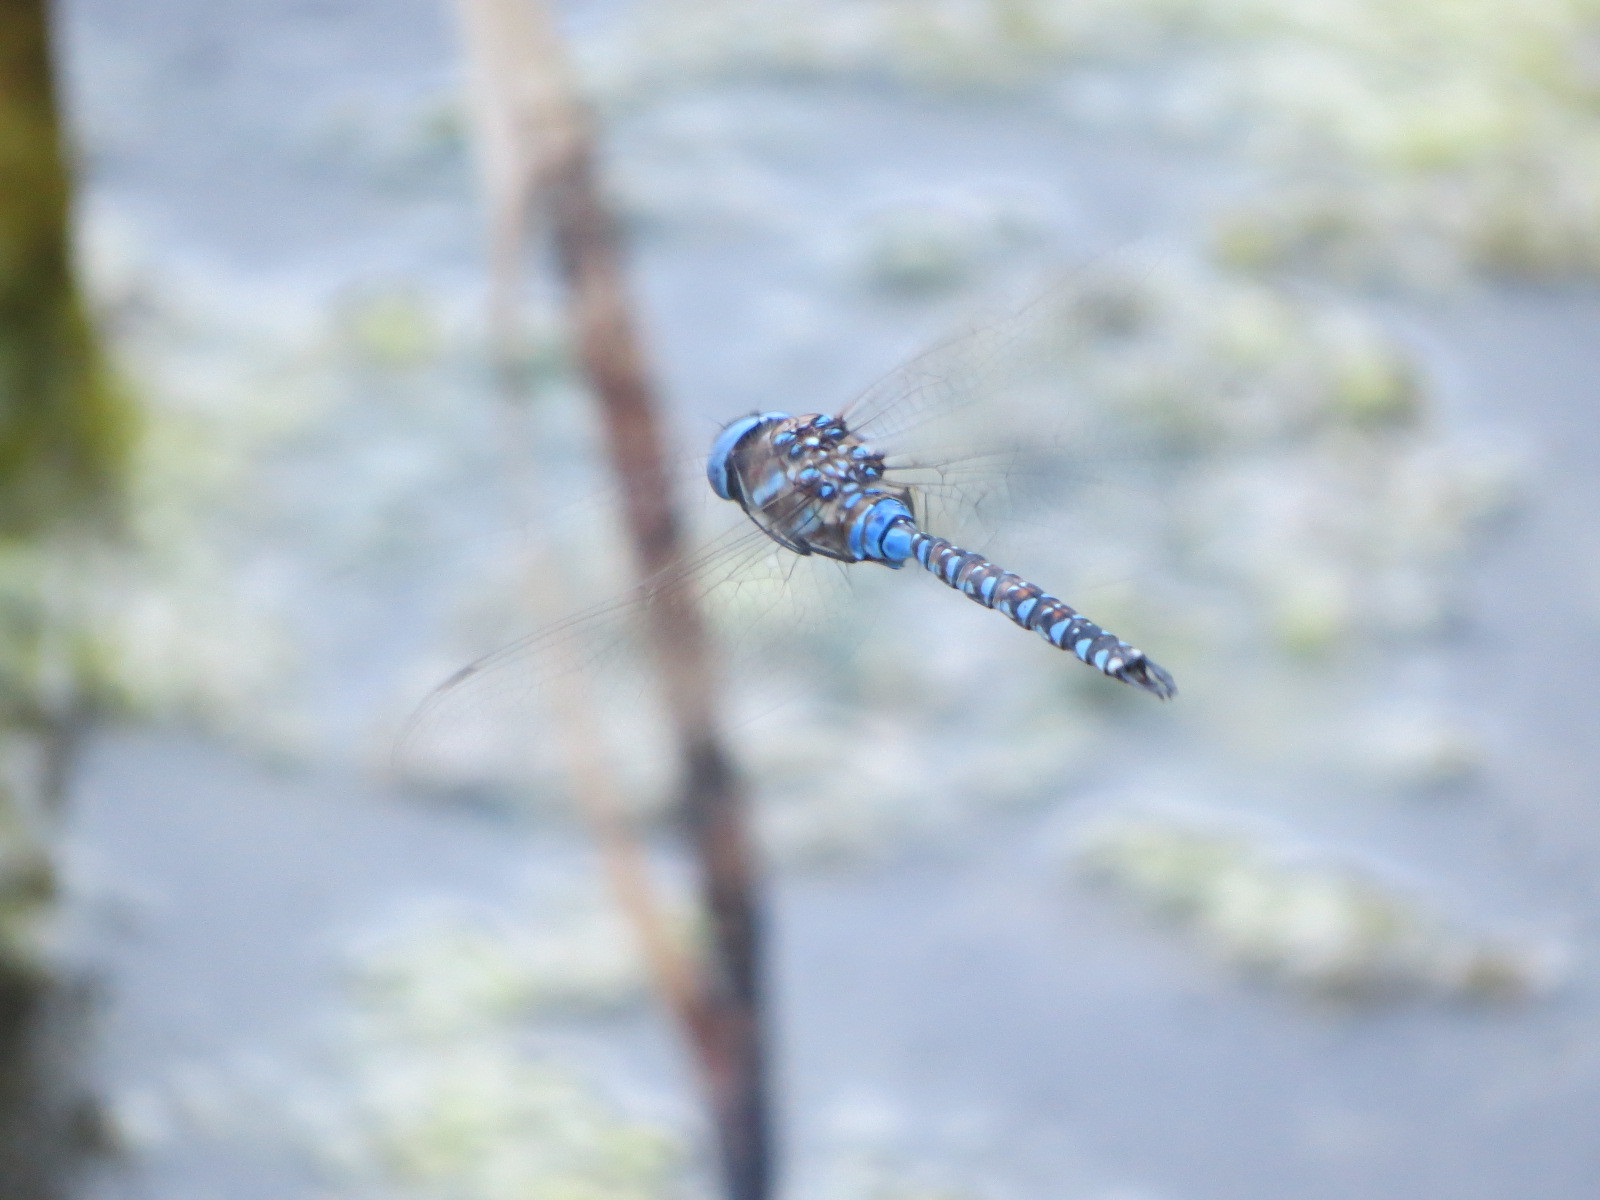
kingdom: Animalia
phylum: Arthropoda
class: Insecta
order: Odonata
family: Aeshnidae
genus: Rhionaeschna
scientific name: Rhionaeschna multicolor
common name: Blue-eyed darner
